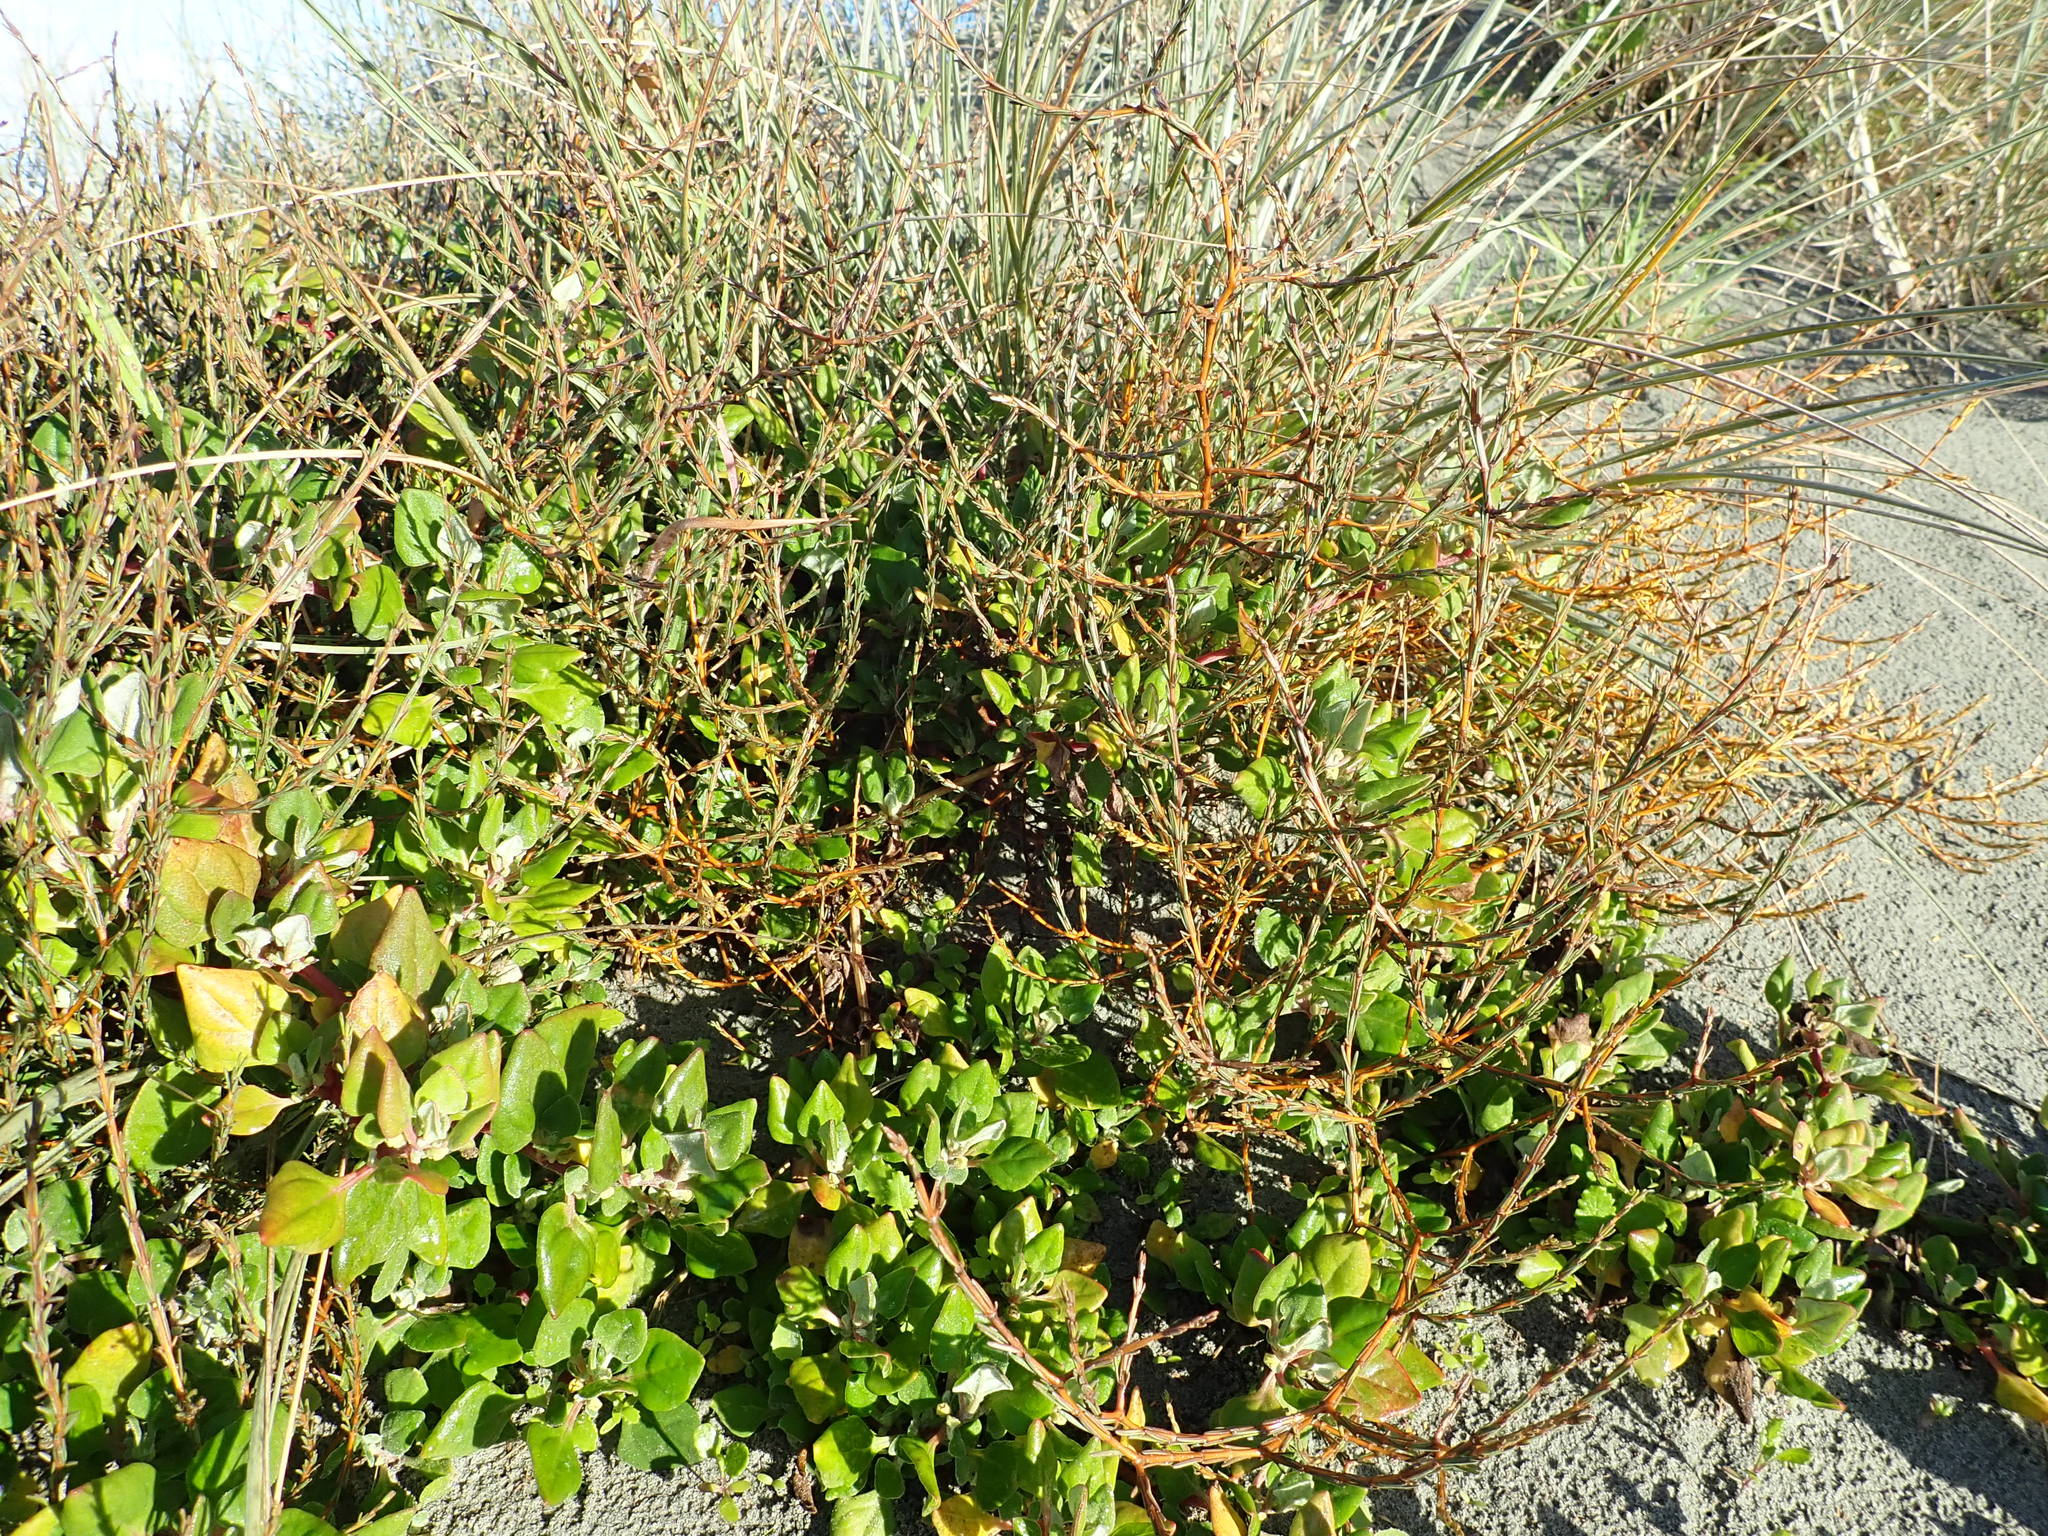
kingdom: Plantae
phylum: Tracheophyta
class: Magnoliopsida
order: Caryophyllales
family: Aizoaceae
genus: Tetragonia
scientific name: Tetragonia implexicoma
